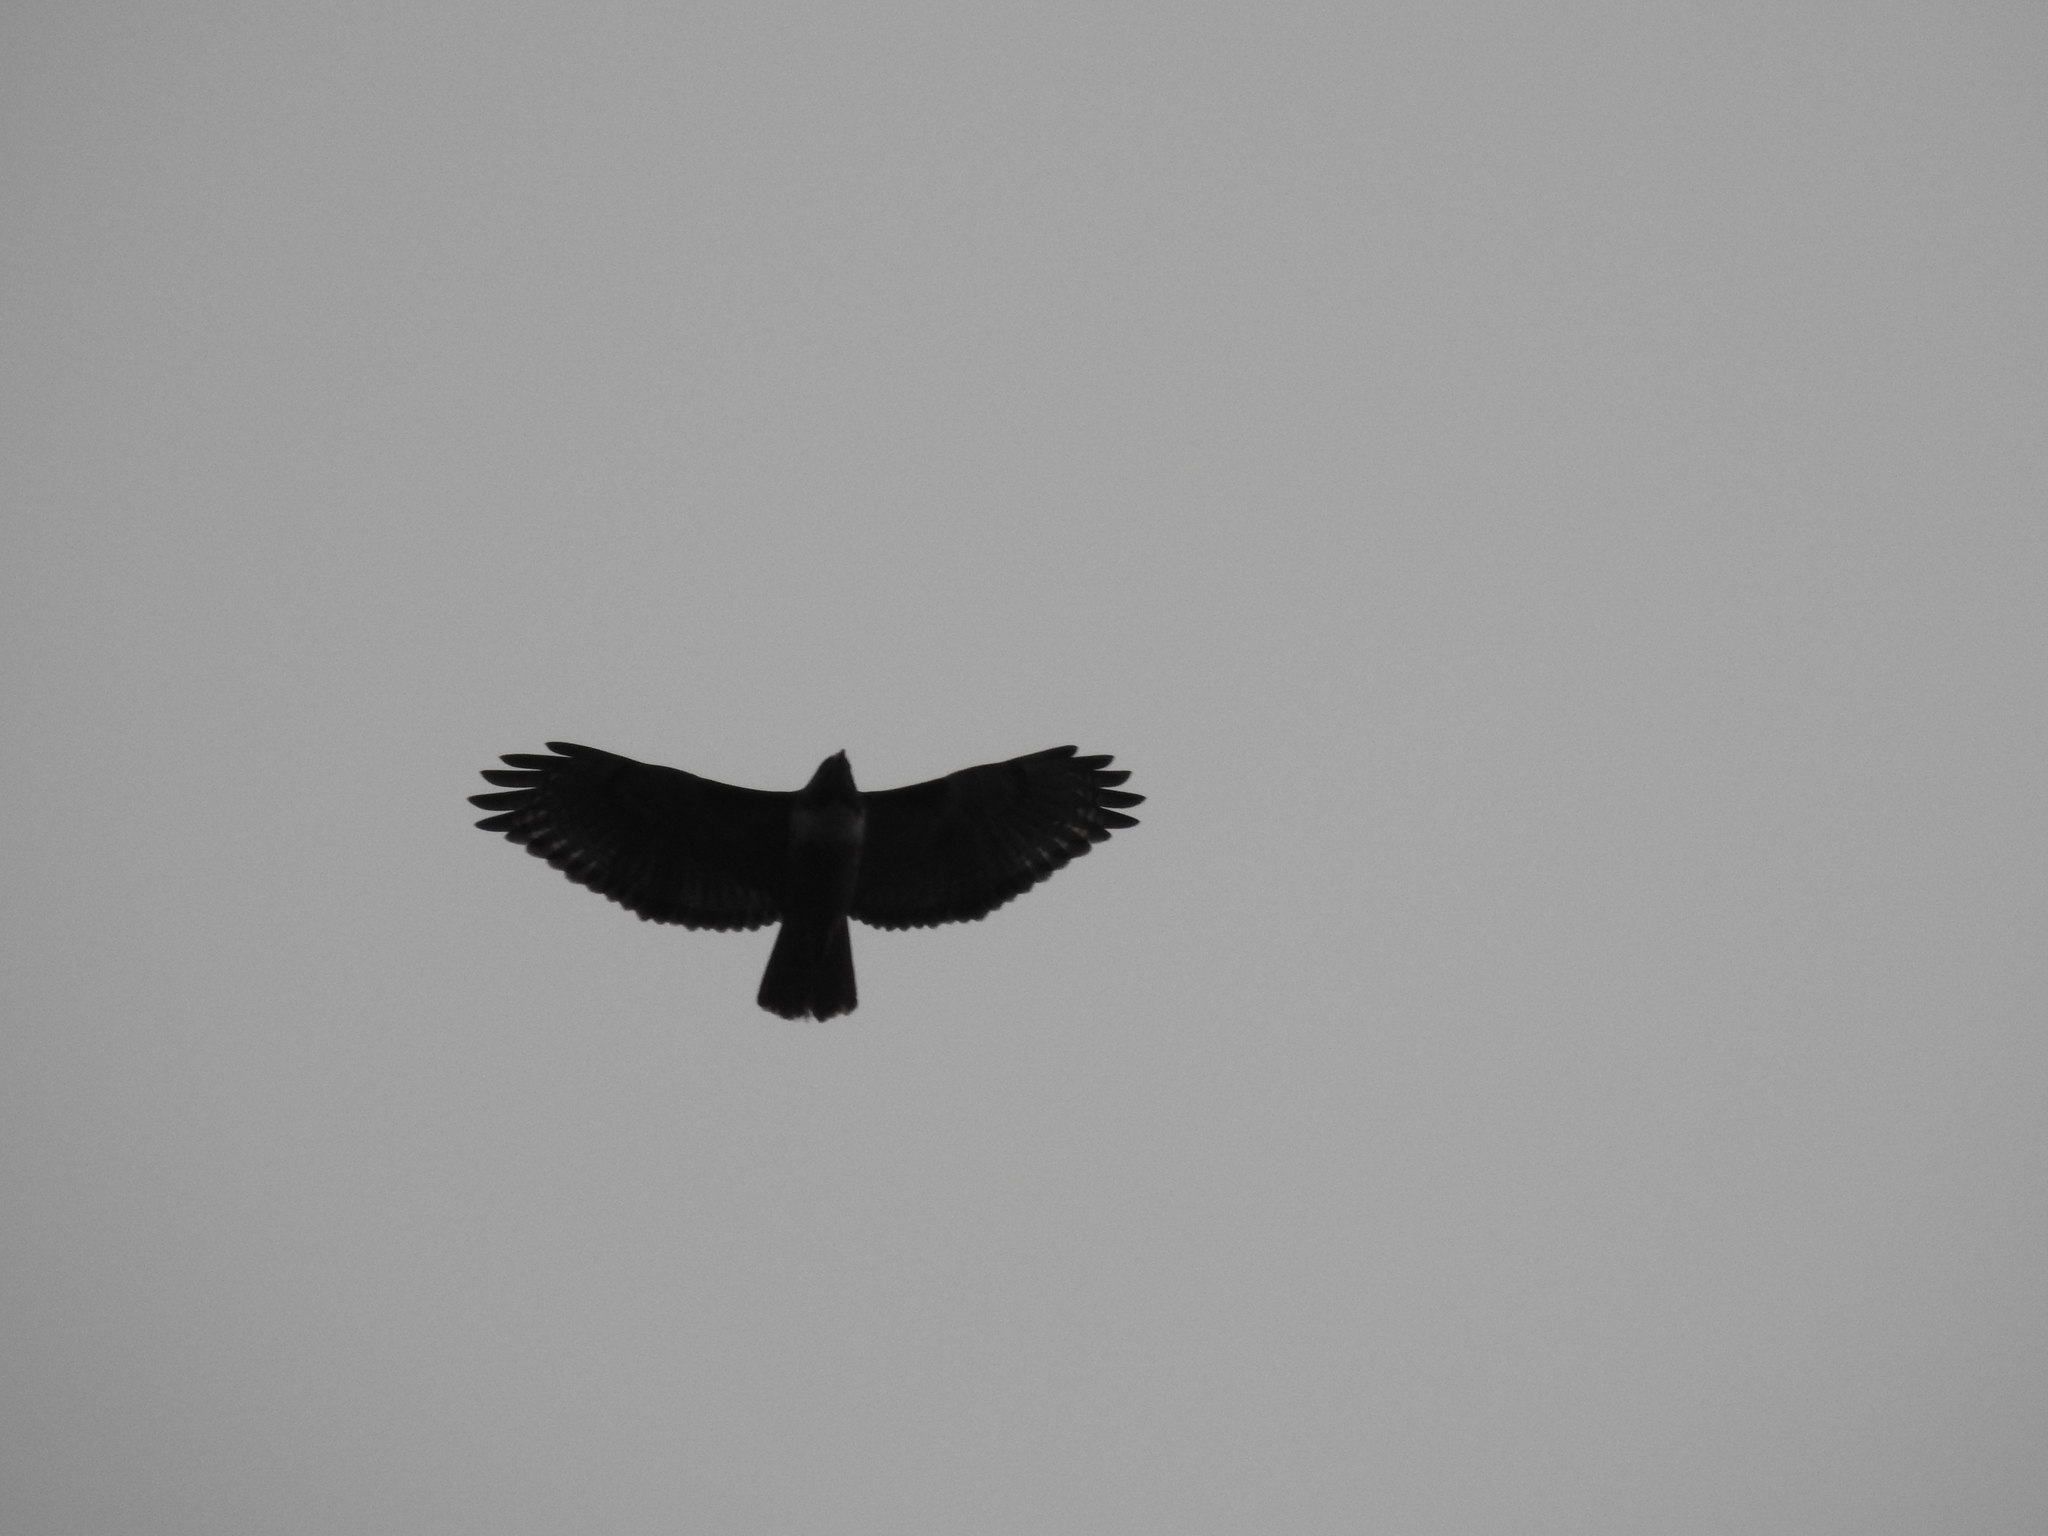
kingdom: Animalia
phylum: Chordata
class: Aves
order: Accipitriformes
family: Accipitridae
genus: Buteo
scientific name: Buteo jamaicensis
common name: Red-tailed hawk
